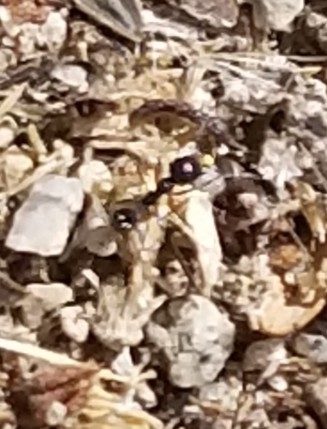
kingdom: Animalia
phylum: Arthropoda
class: Insecta
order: Hymenoptera
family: Formicidae
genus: Messor
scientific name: Messor pergandei
